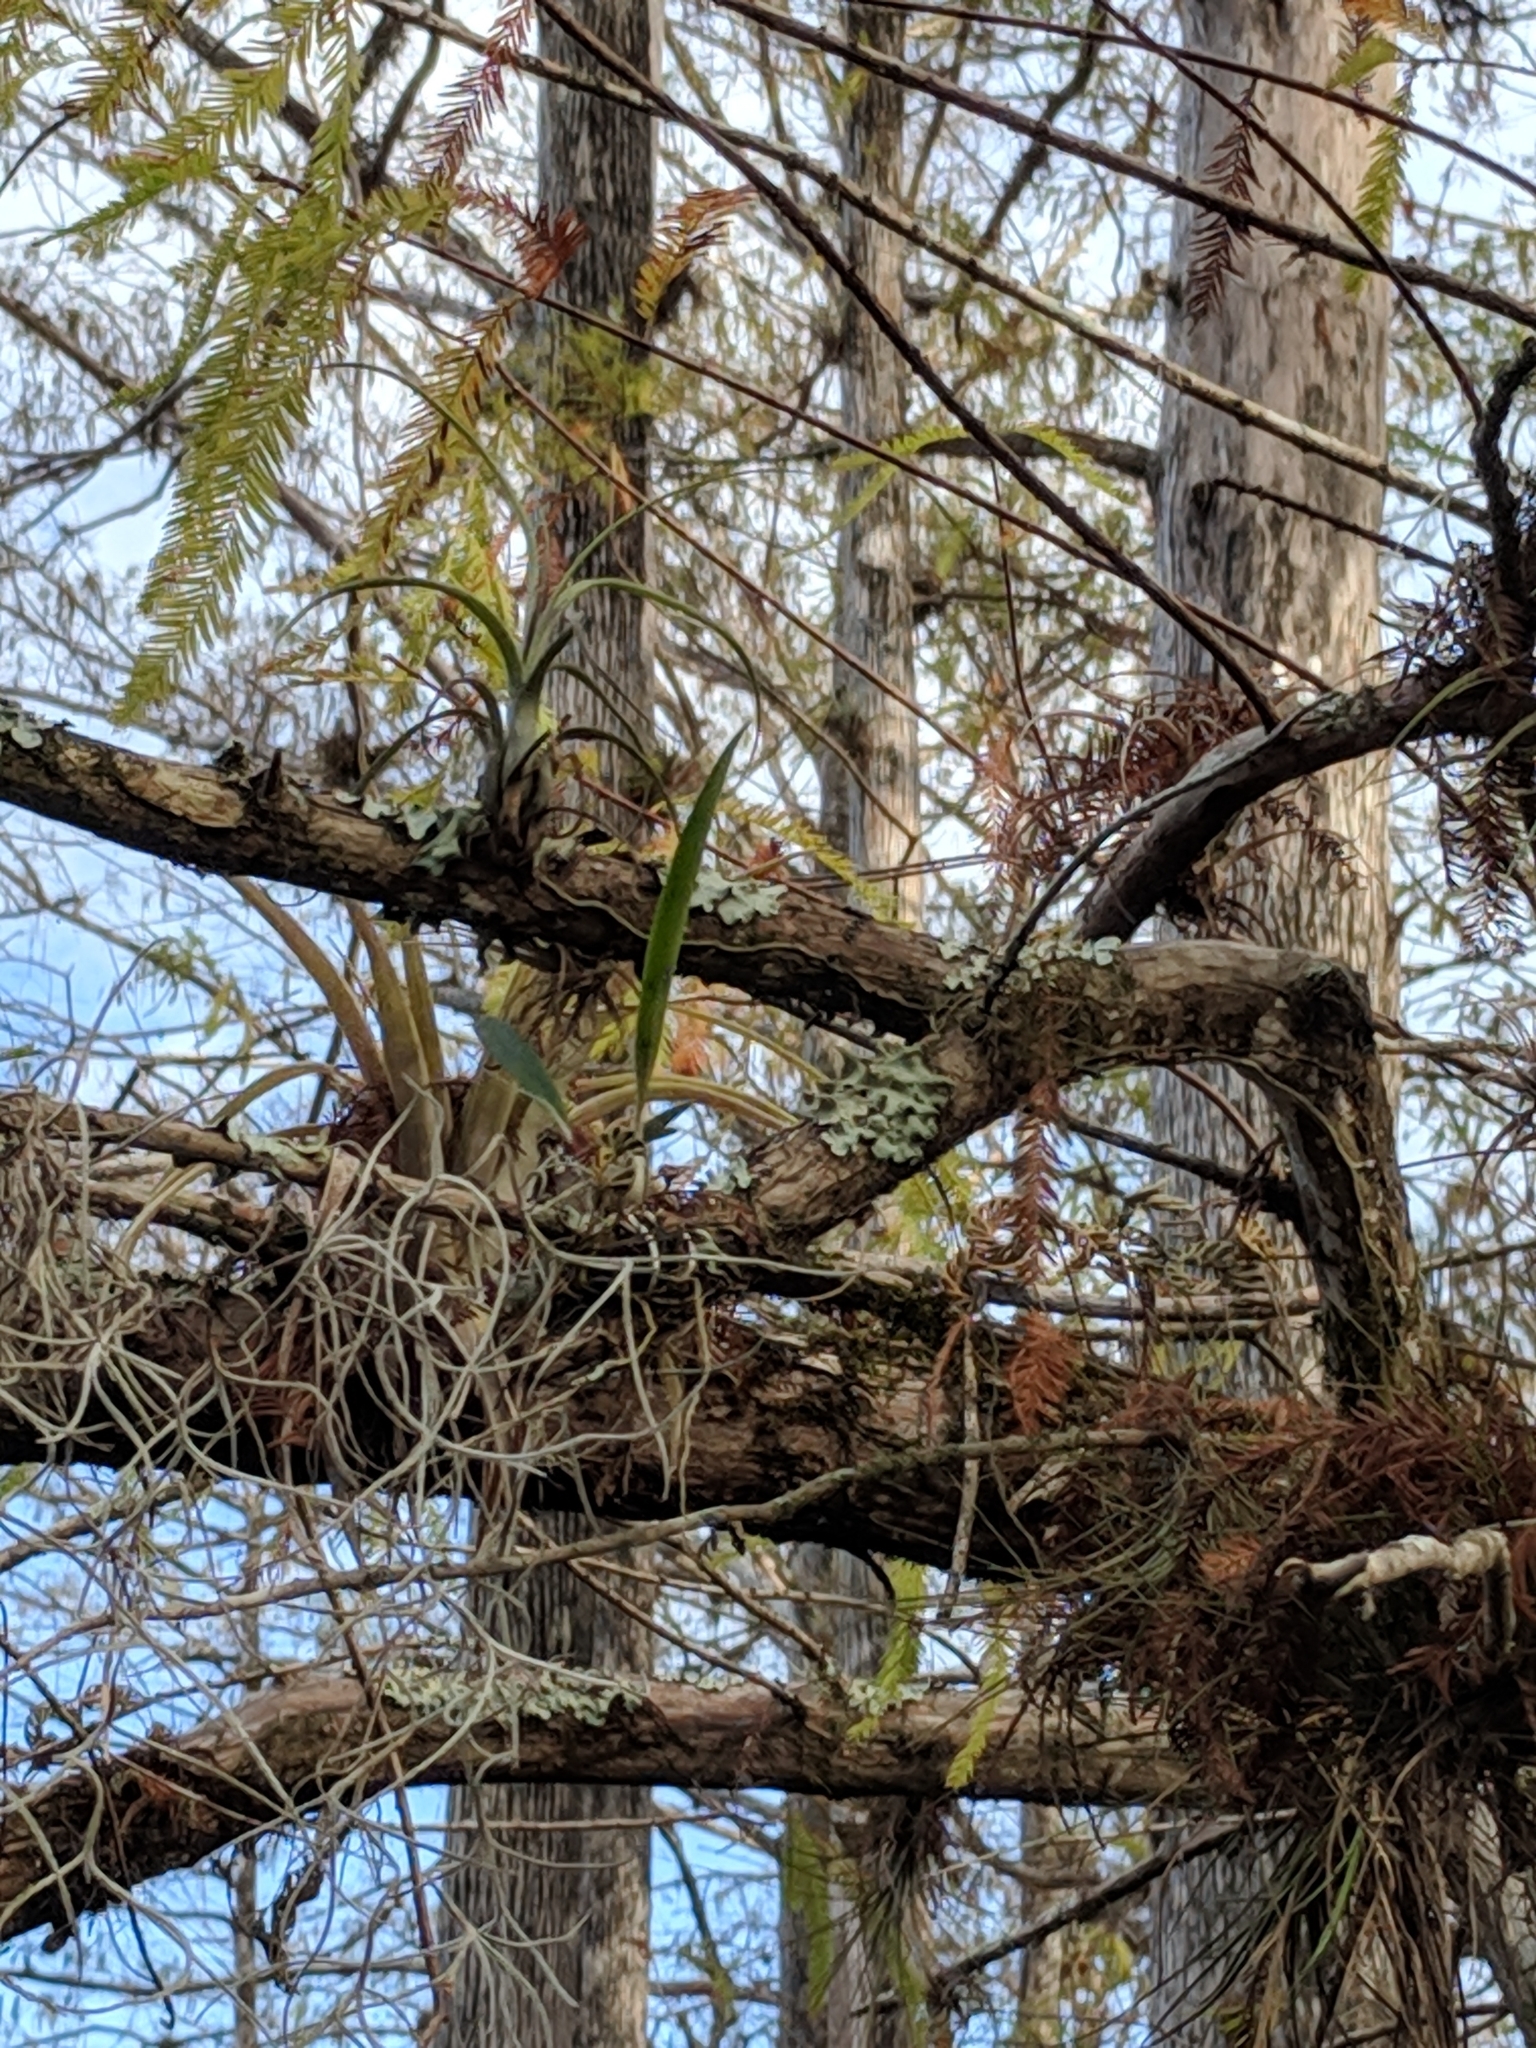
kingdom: Plantae
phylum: Tracheophyta
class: Liliopsida
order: Poales
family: Bromeliaceae
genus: Tillandsia
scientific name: Tillandsia balbisiana
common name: Northern needleleaf
